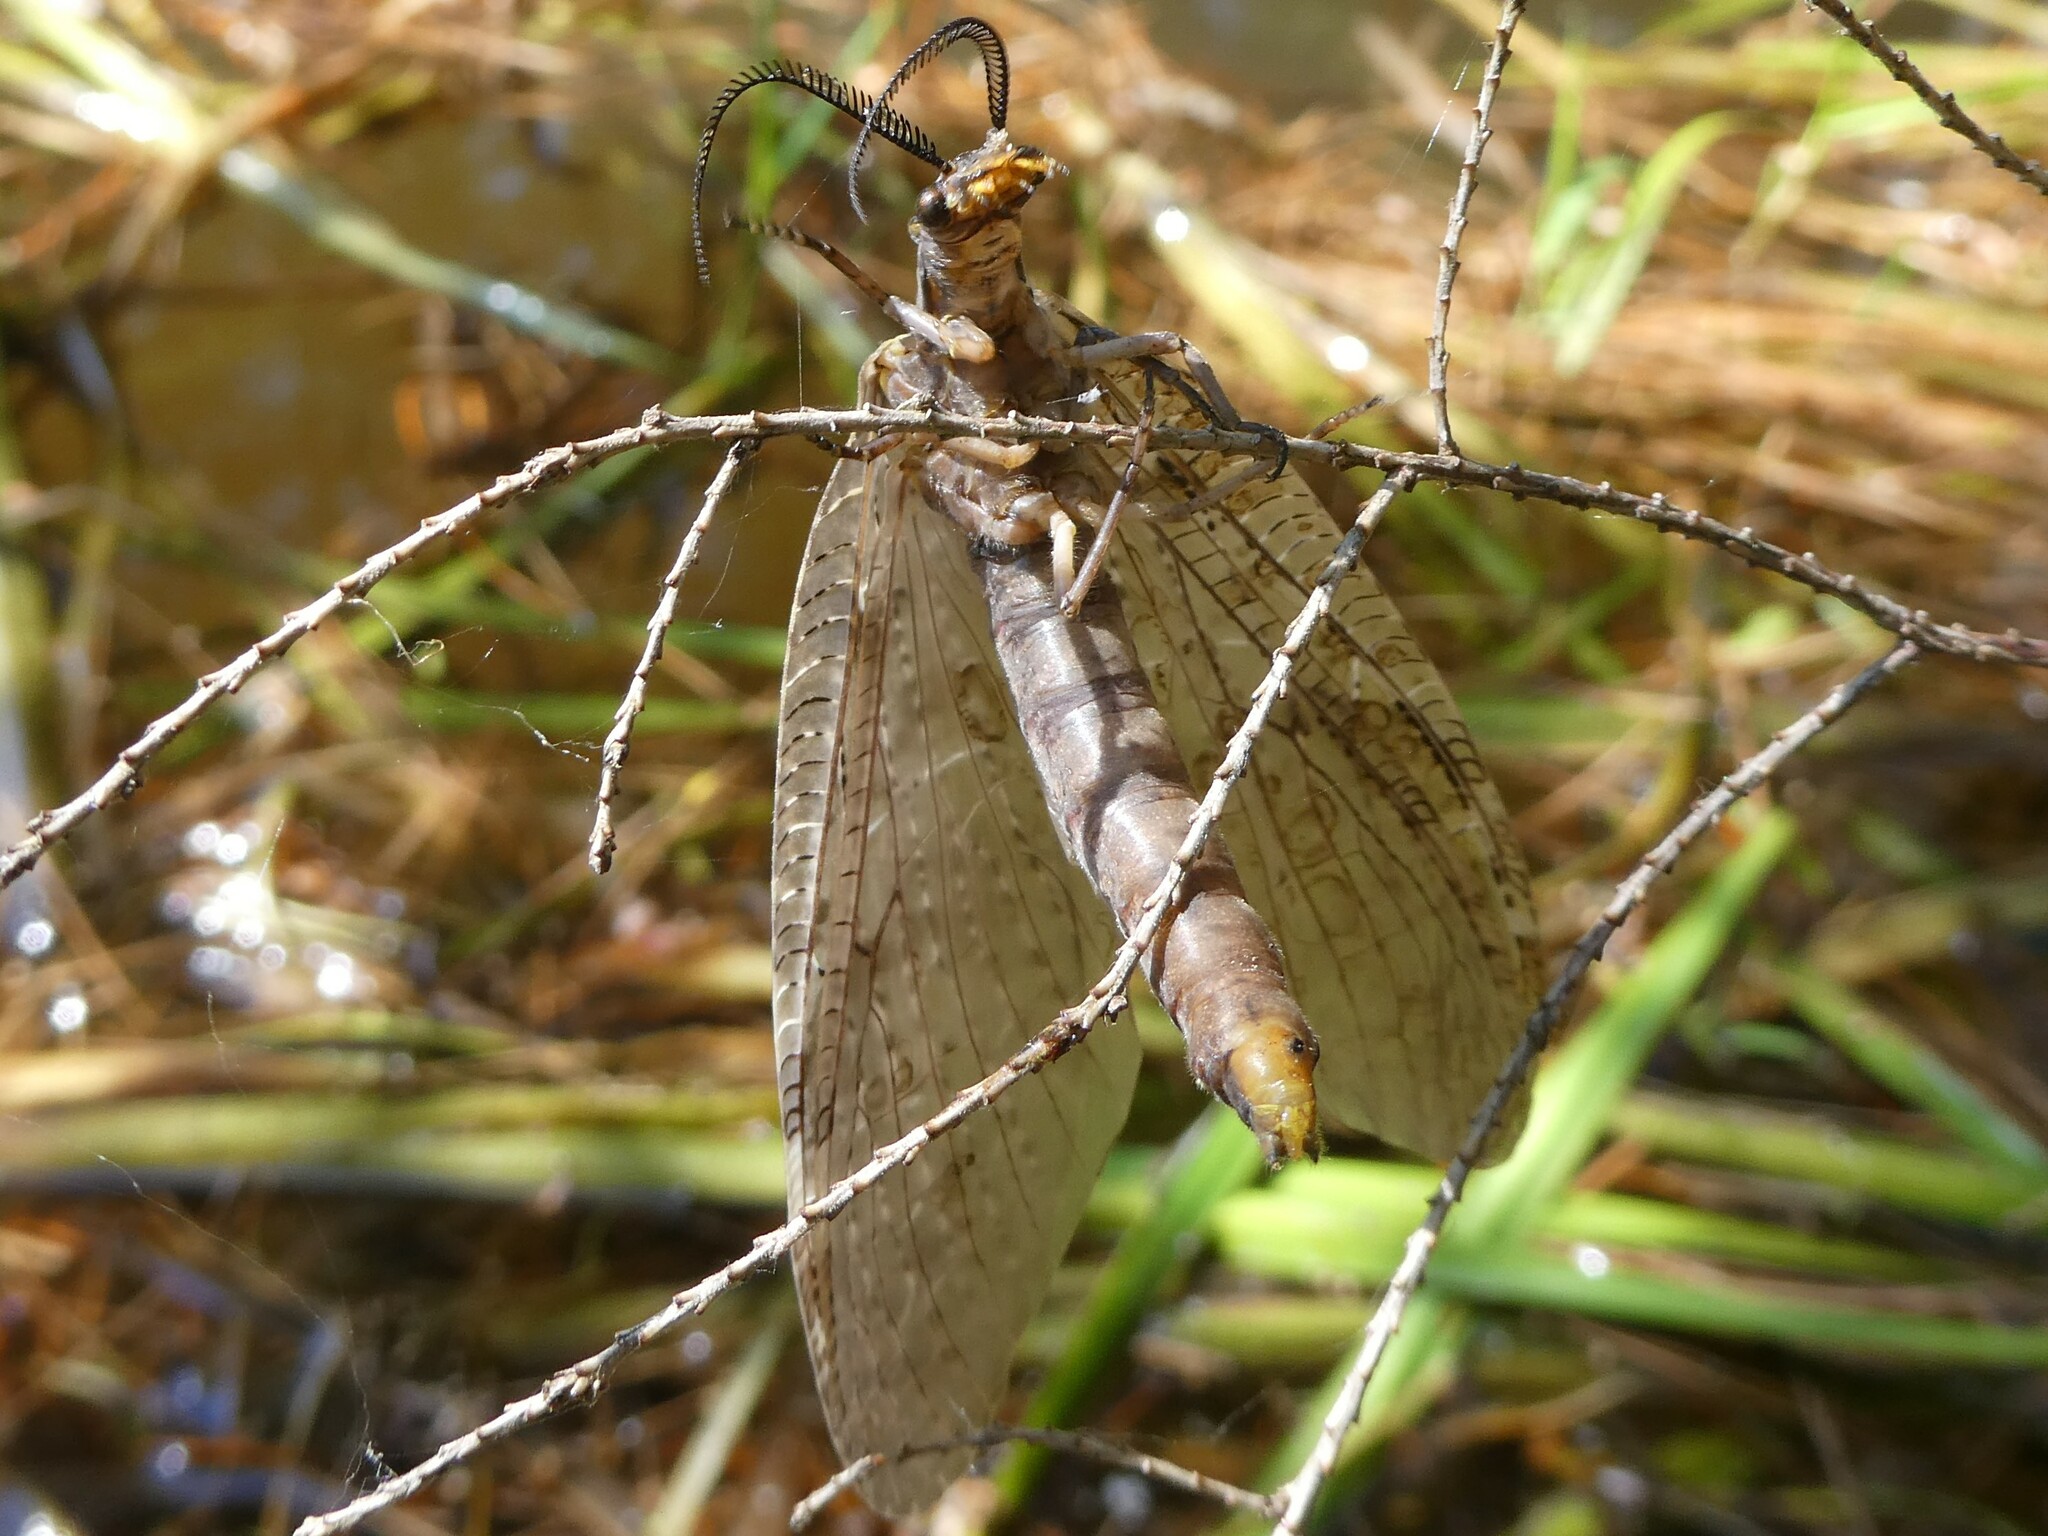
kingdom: Animalia
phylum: Arthropoda
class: Insecta
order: Megaloptera
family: Corydalidae
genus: Chauliodes
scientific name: Chauliodes pectinicornis
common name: Summer fishfly
